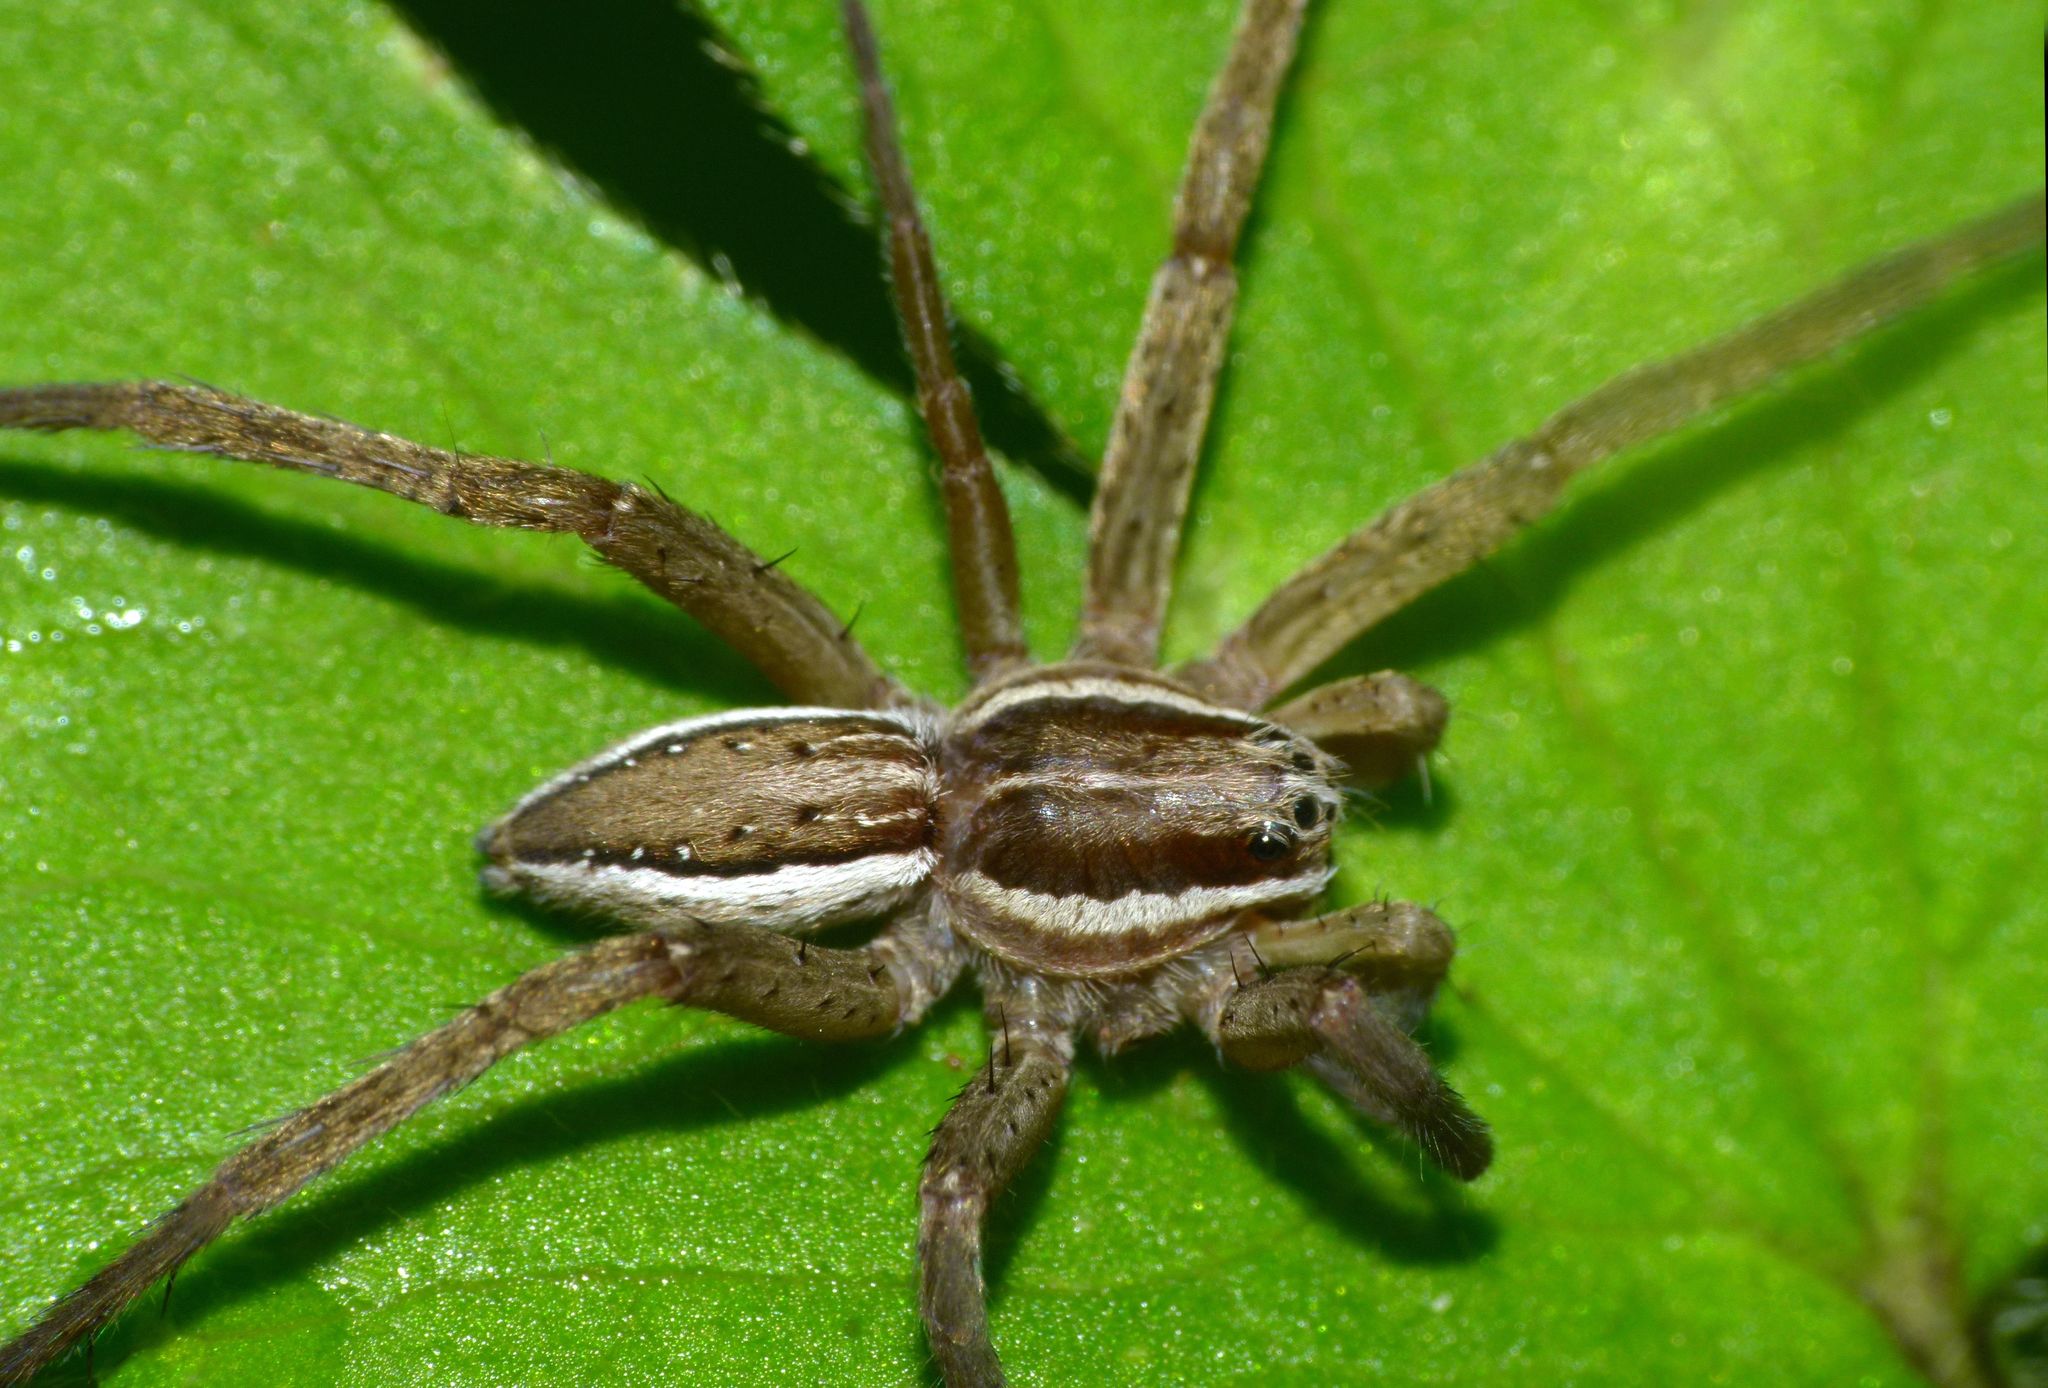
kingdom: Animalia
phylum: Arthropoda
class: Arachnida
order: Araneae
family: Pisauridae
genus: Dolomedes
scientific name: Dolomedes minor
